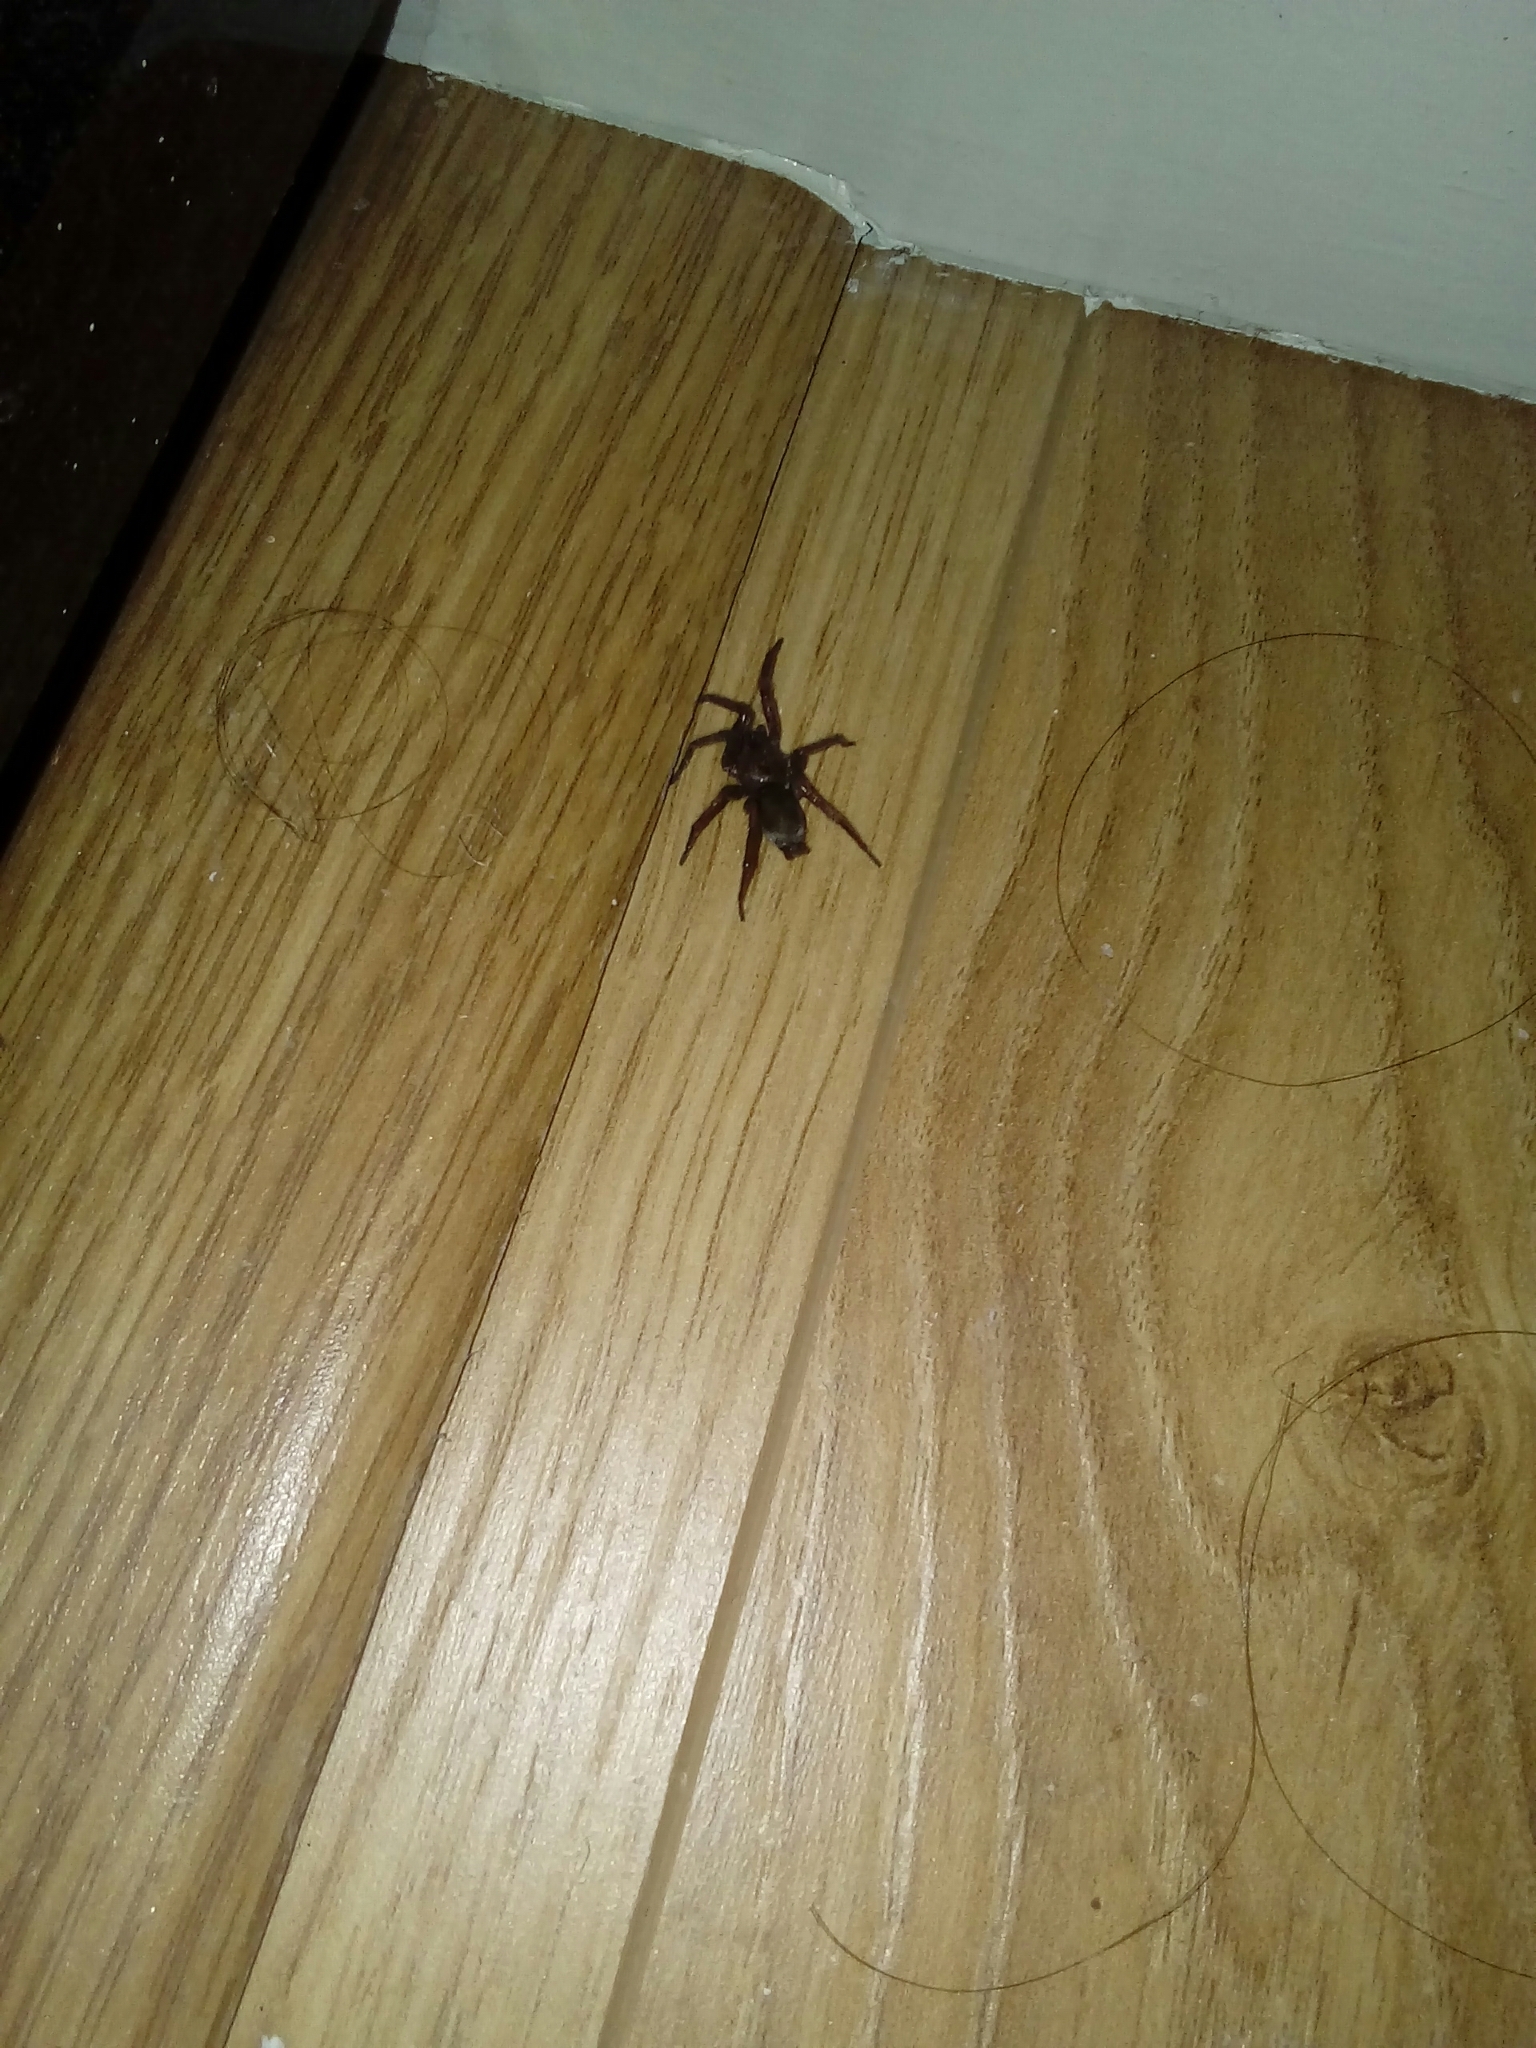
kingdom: Animalia
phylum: Arthropoda
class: Arachnida
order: Araneae
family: Gnaphosidae
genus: Scotophaeus
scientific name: Scotophaeus blackwalli
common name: Mouse spider
